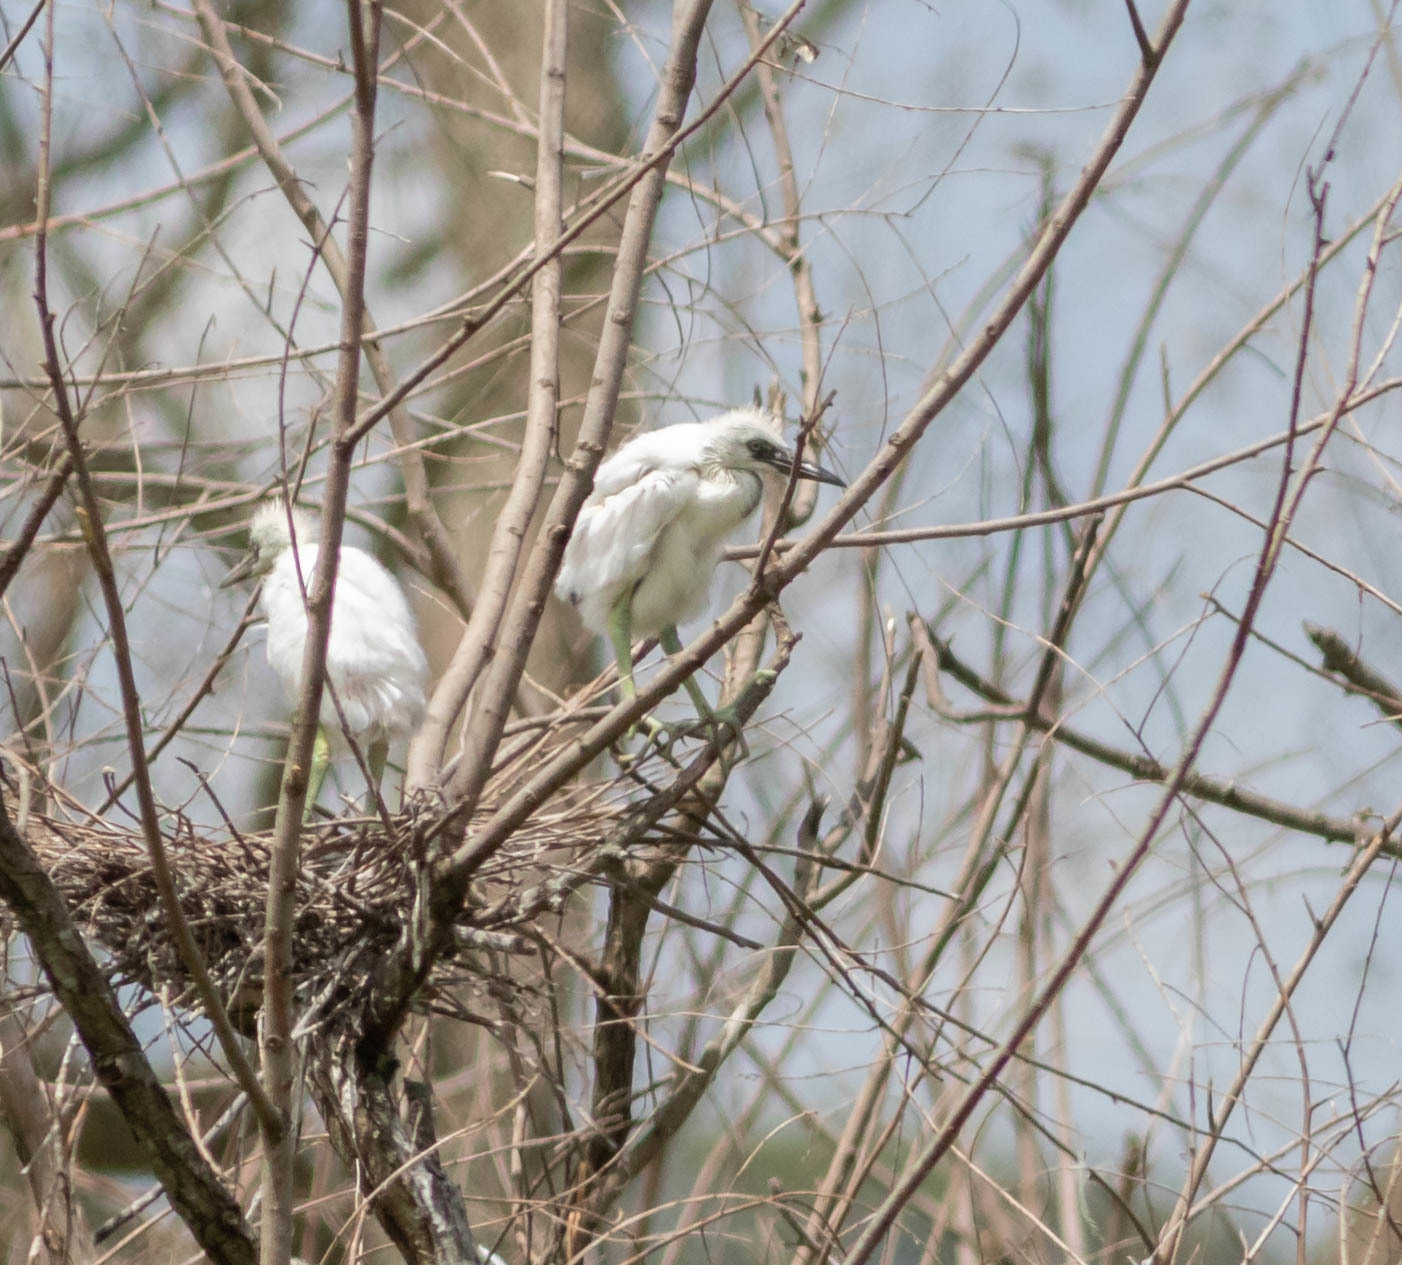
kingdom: Animalia
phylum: Chordata
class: Aves
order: Pelecaniformes
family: Ardeidae
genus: Egretta
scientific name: Egretta thula
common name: Snowy egret
